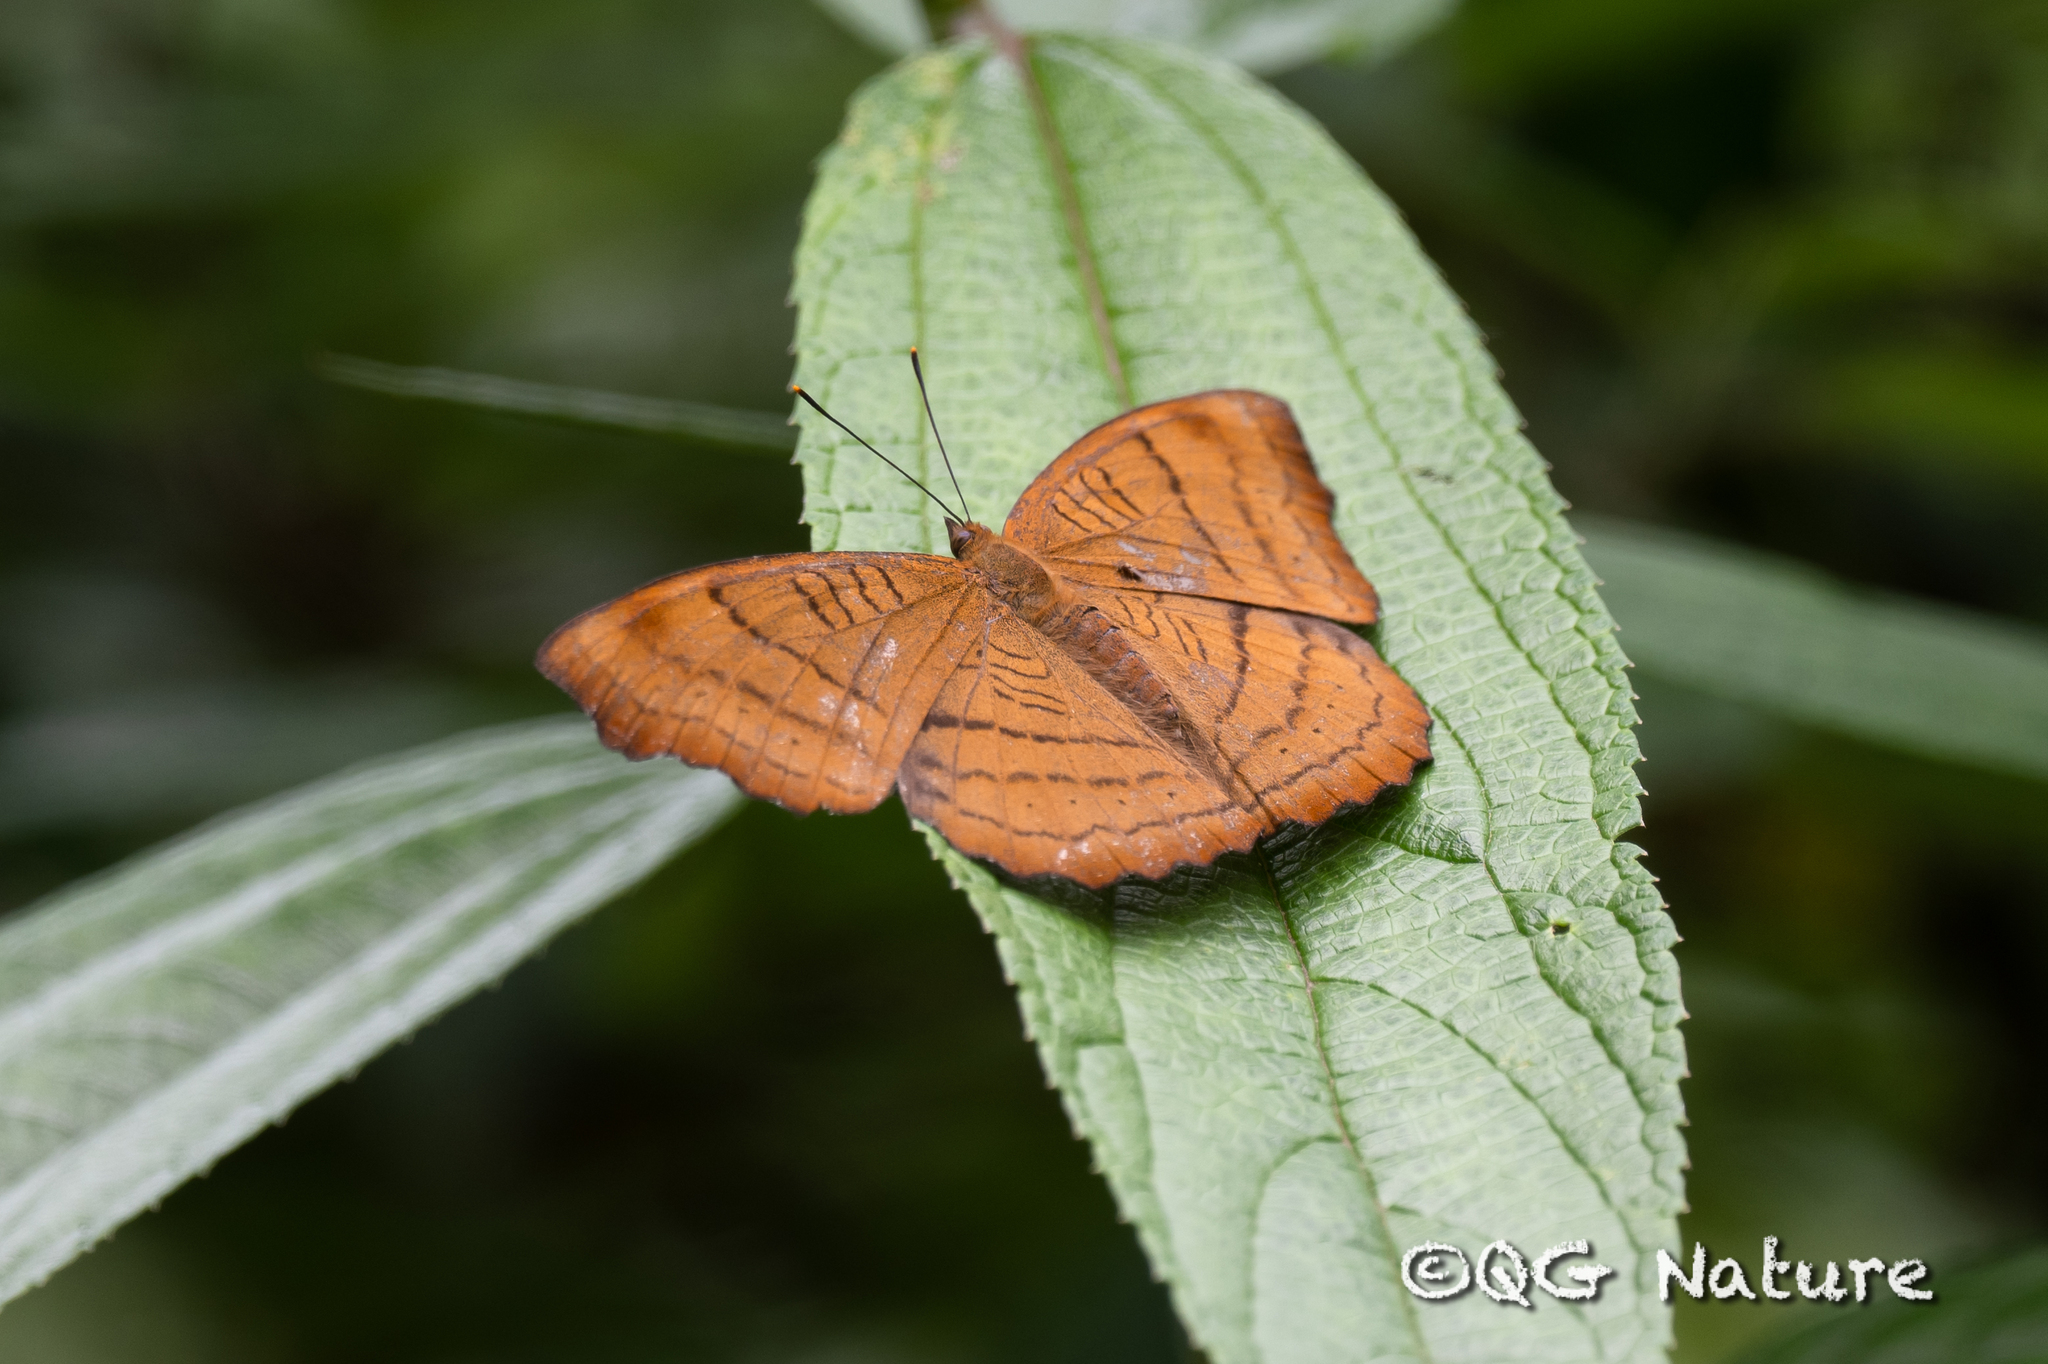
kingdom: Animalia
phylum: Arthropoda
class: Insecta
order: Lepidoptera
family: Nymphalidae
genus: Pseudergolis
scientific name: Pseudergolis wedah
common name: Tabby
